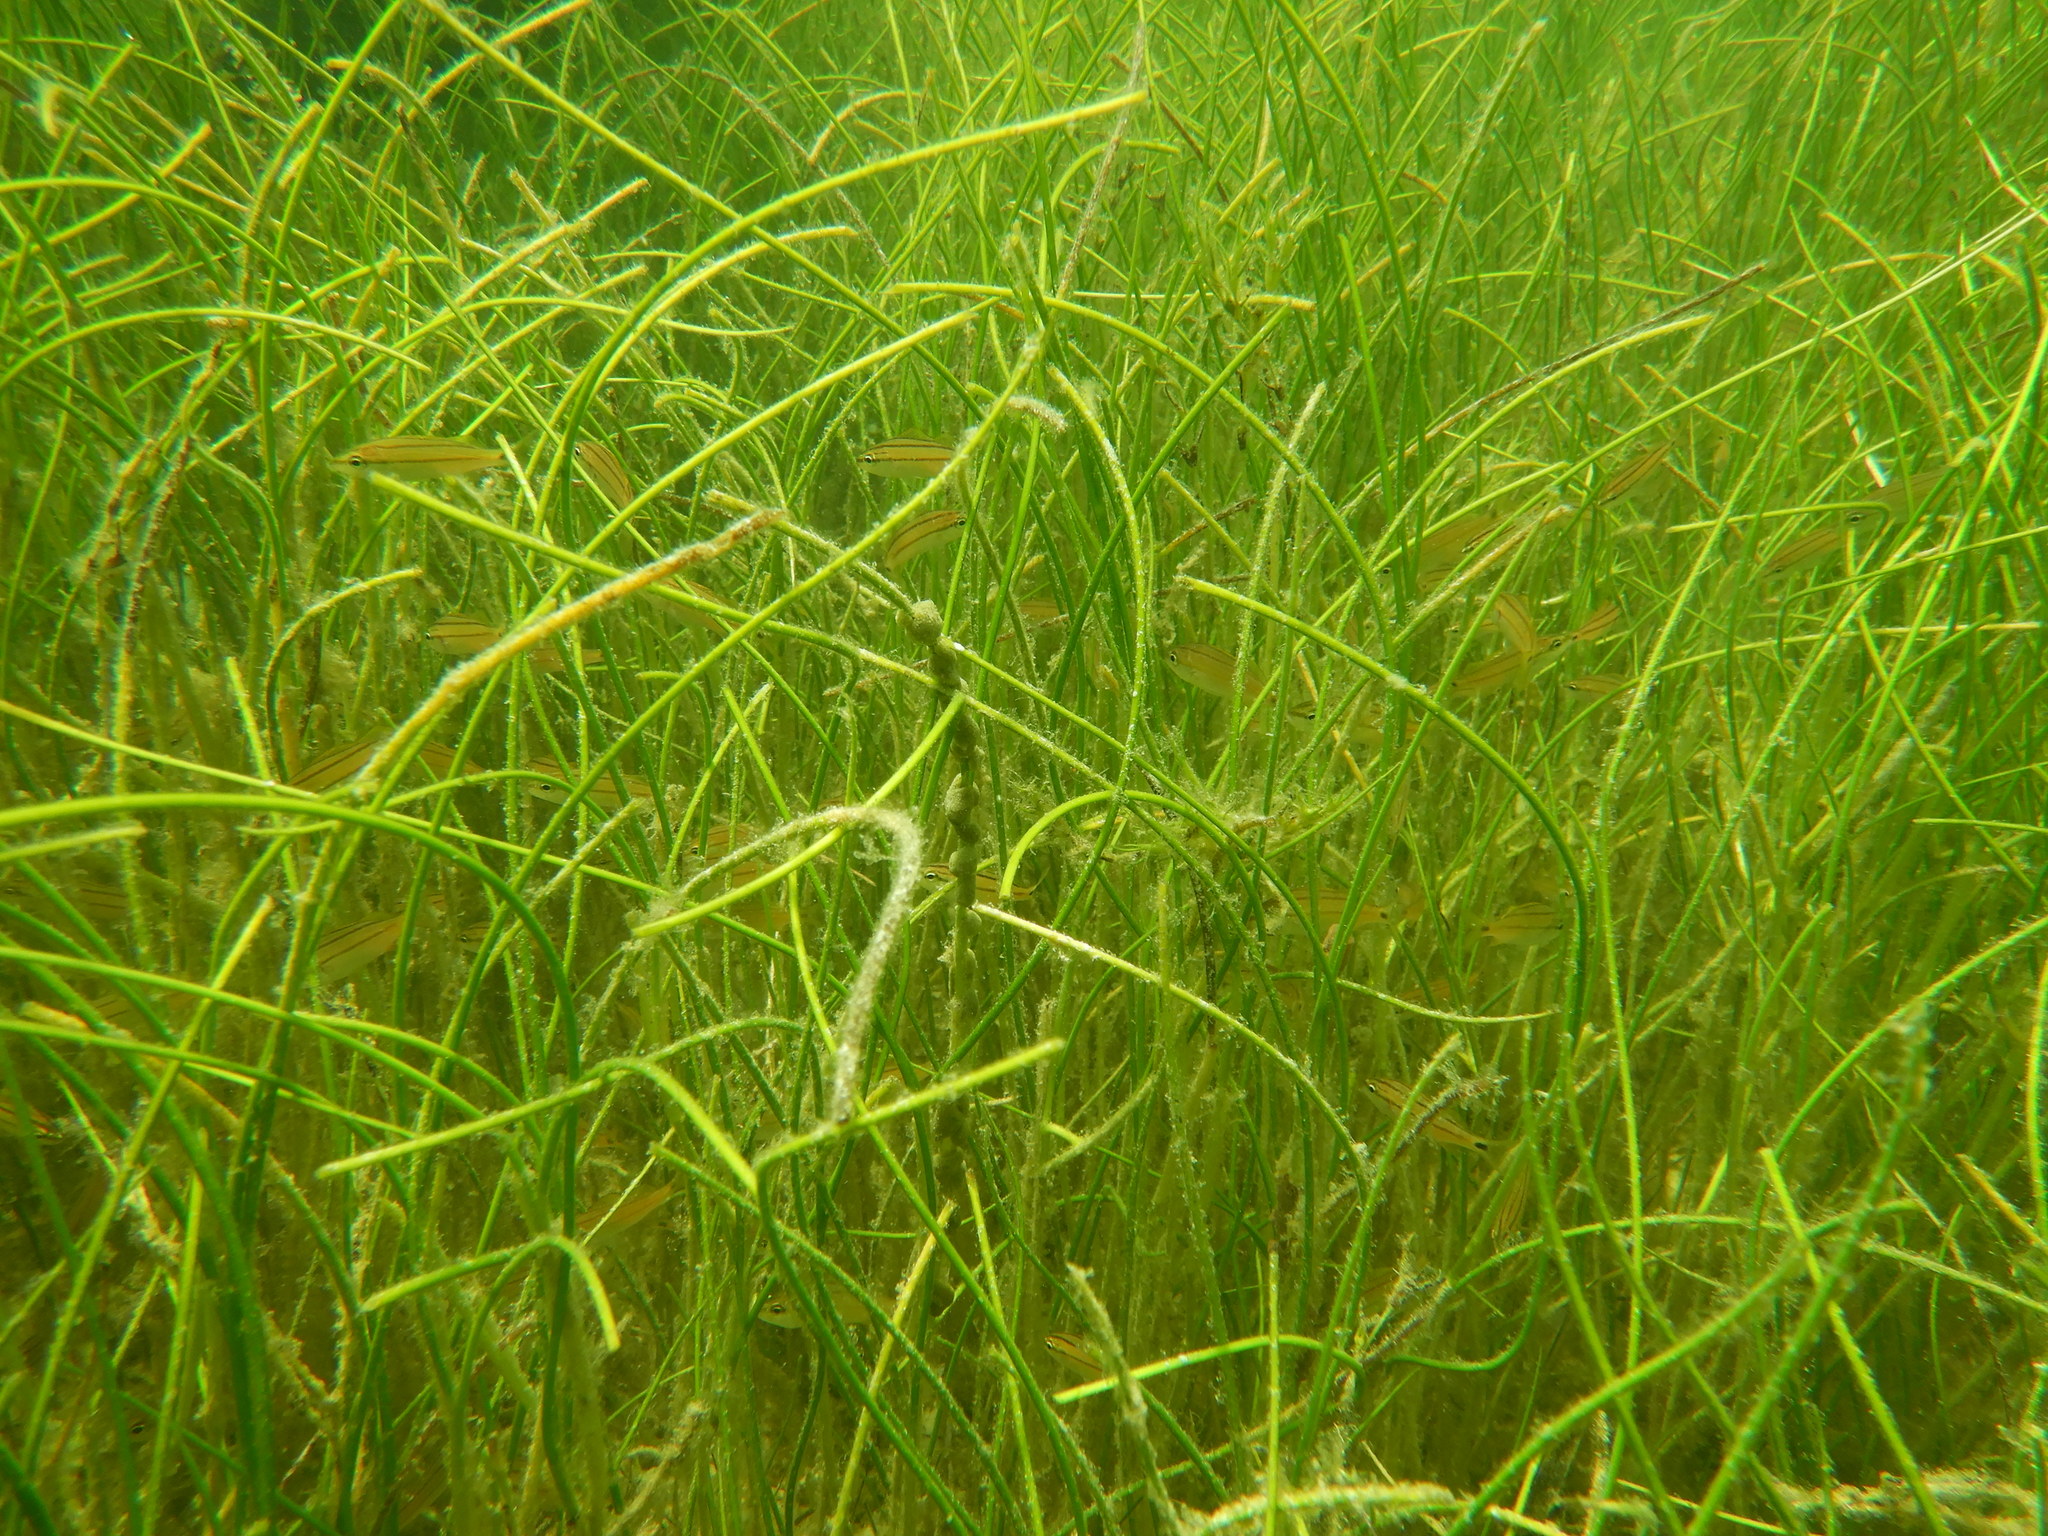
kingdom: Plantae
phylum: Tracheophyta
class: Liliopsida
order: Alismatales
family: Cymodoceaceae
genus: Syringodium
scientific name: Syringodium filiforme
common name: Manatee grass
